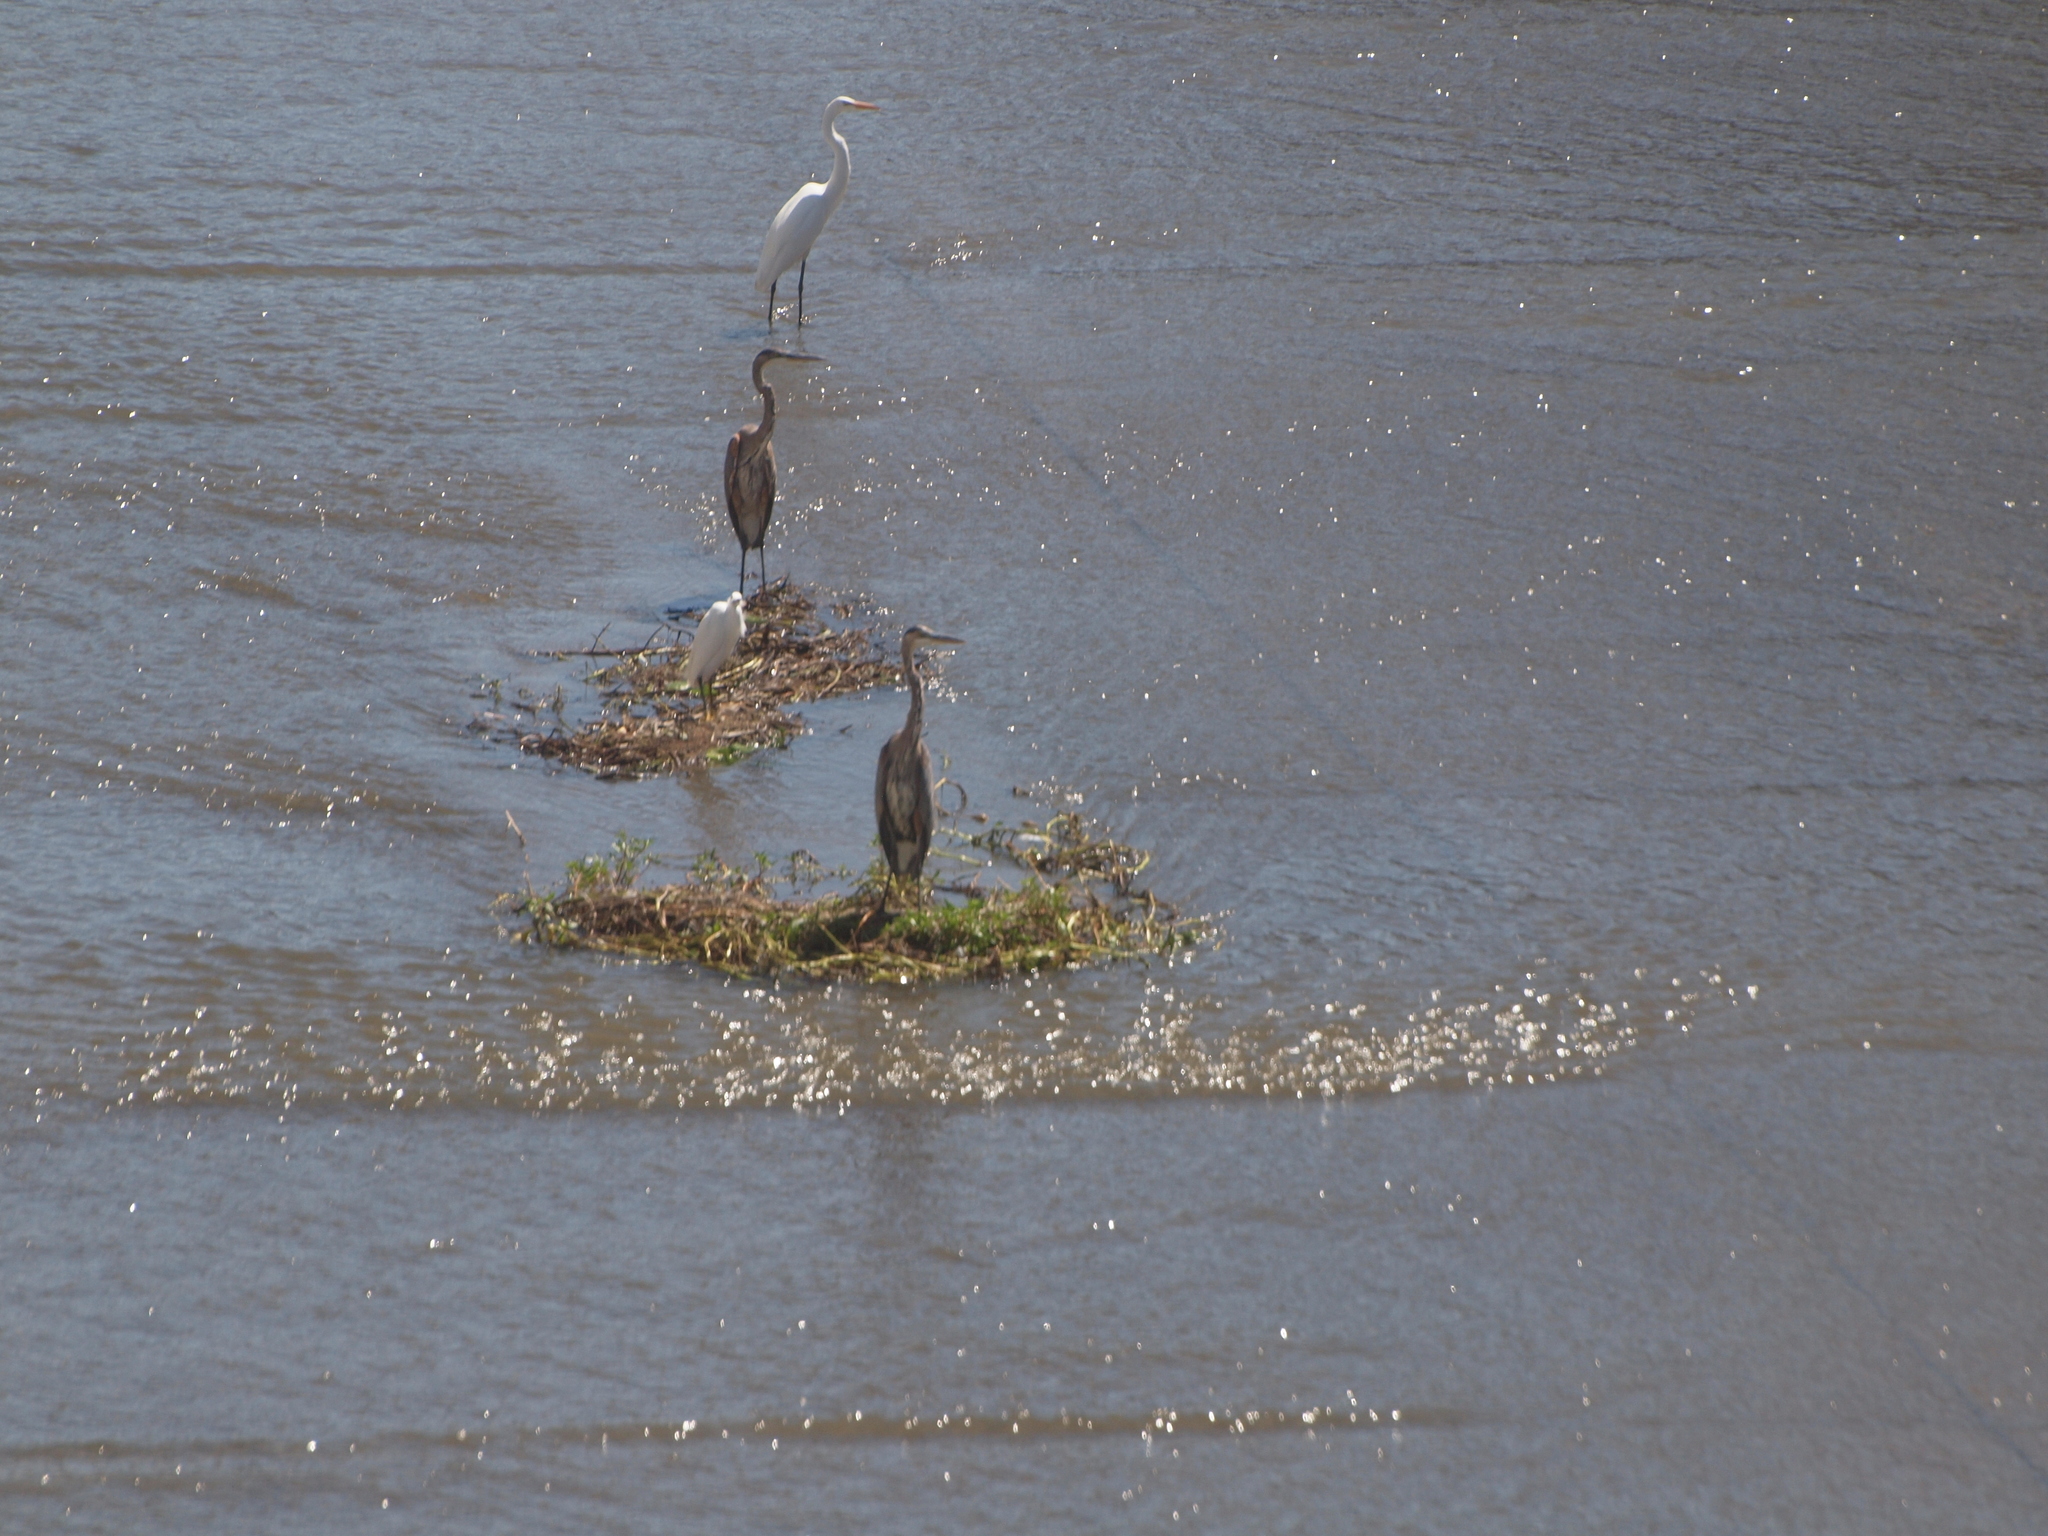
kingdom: Animalia
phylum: Chordata
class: Aves
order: Pelecaniformes
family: Ardeidae
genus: Ardea
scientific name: Ardea herodias
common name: Great blue heron
